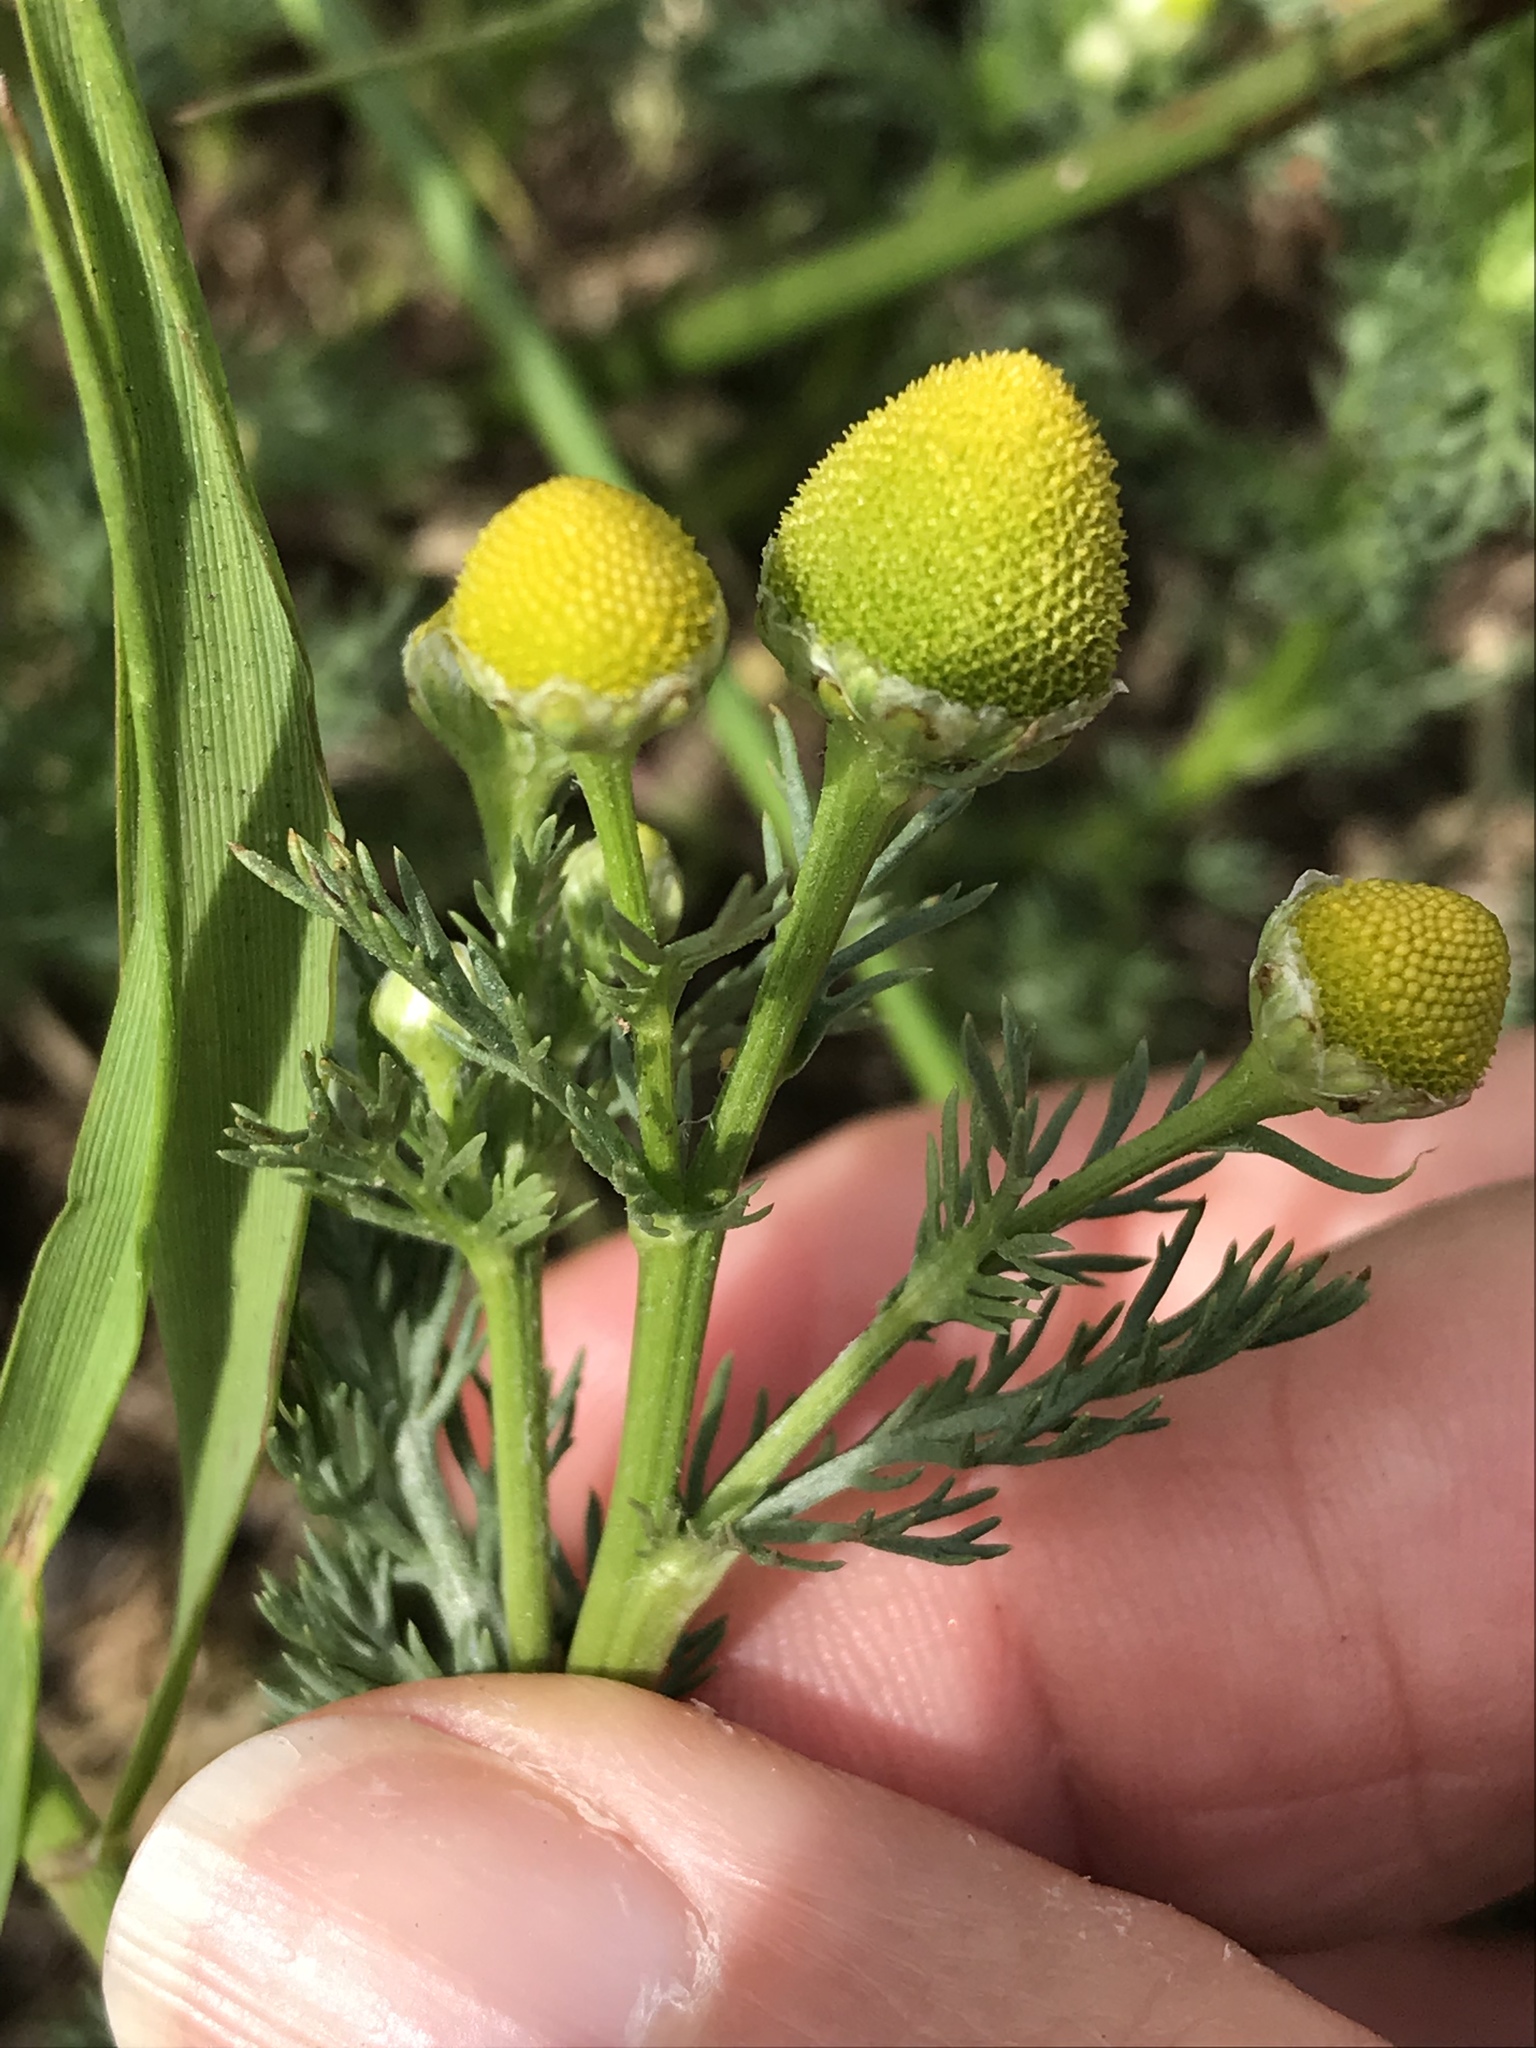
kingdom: Plantae
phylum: Tracheophyta
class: Magnoliopsida
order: Asterales
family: Asteraceae
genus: Matricaria
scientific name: Matricaria discoidea
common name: Disc mayweed
